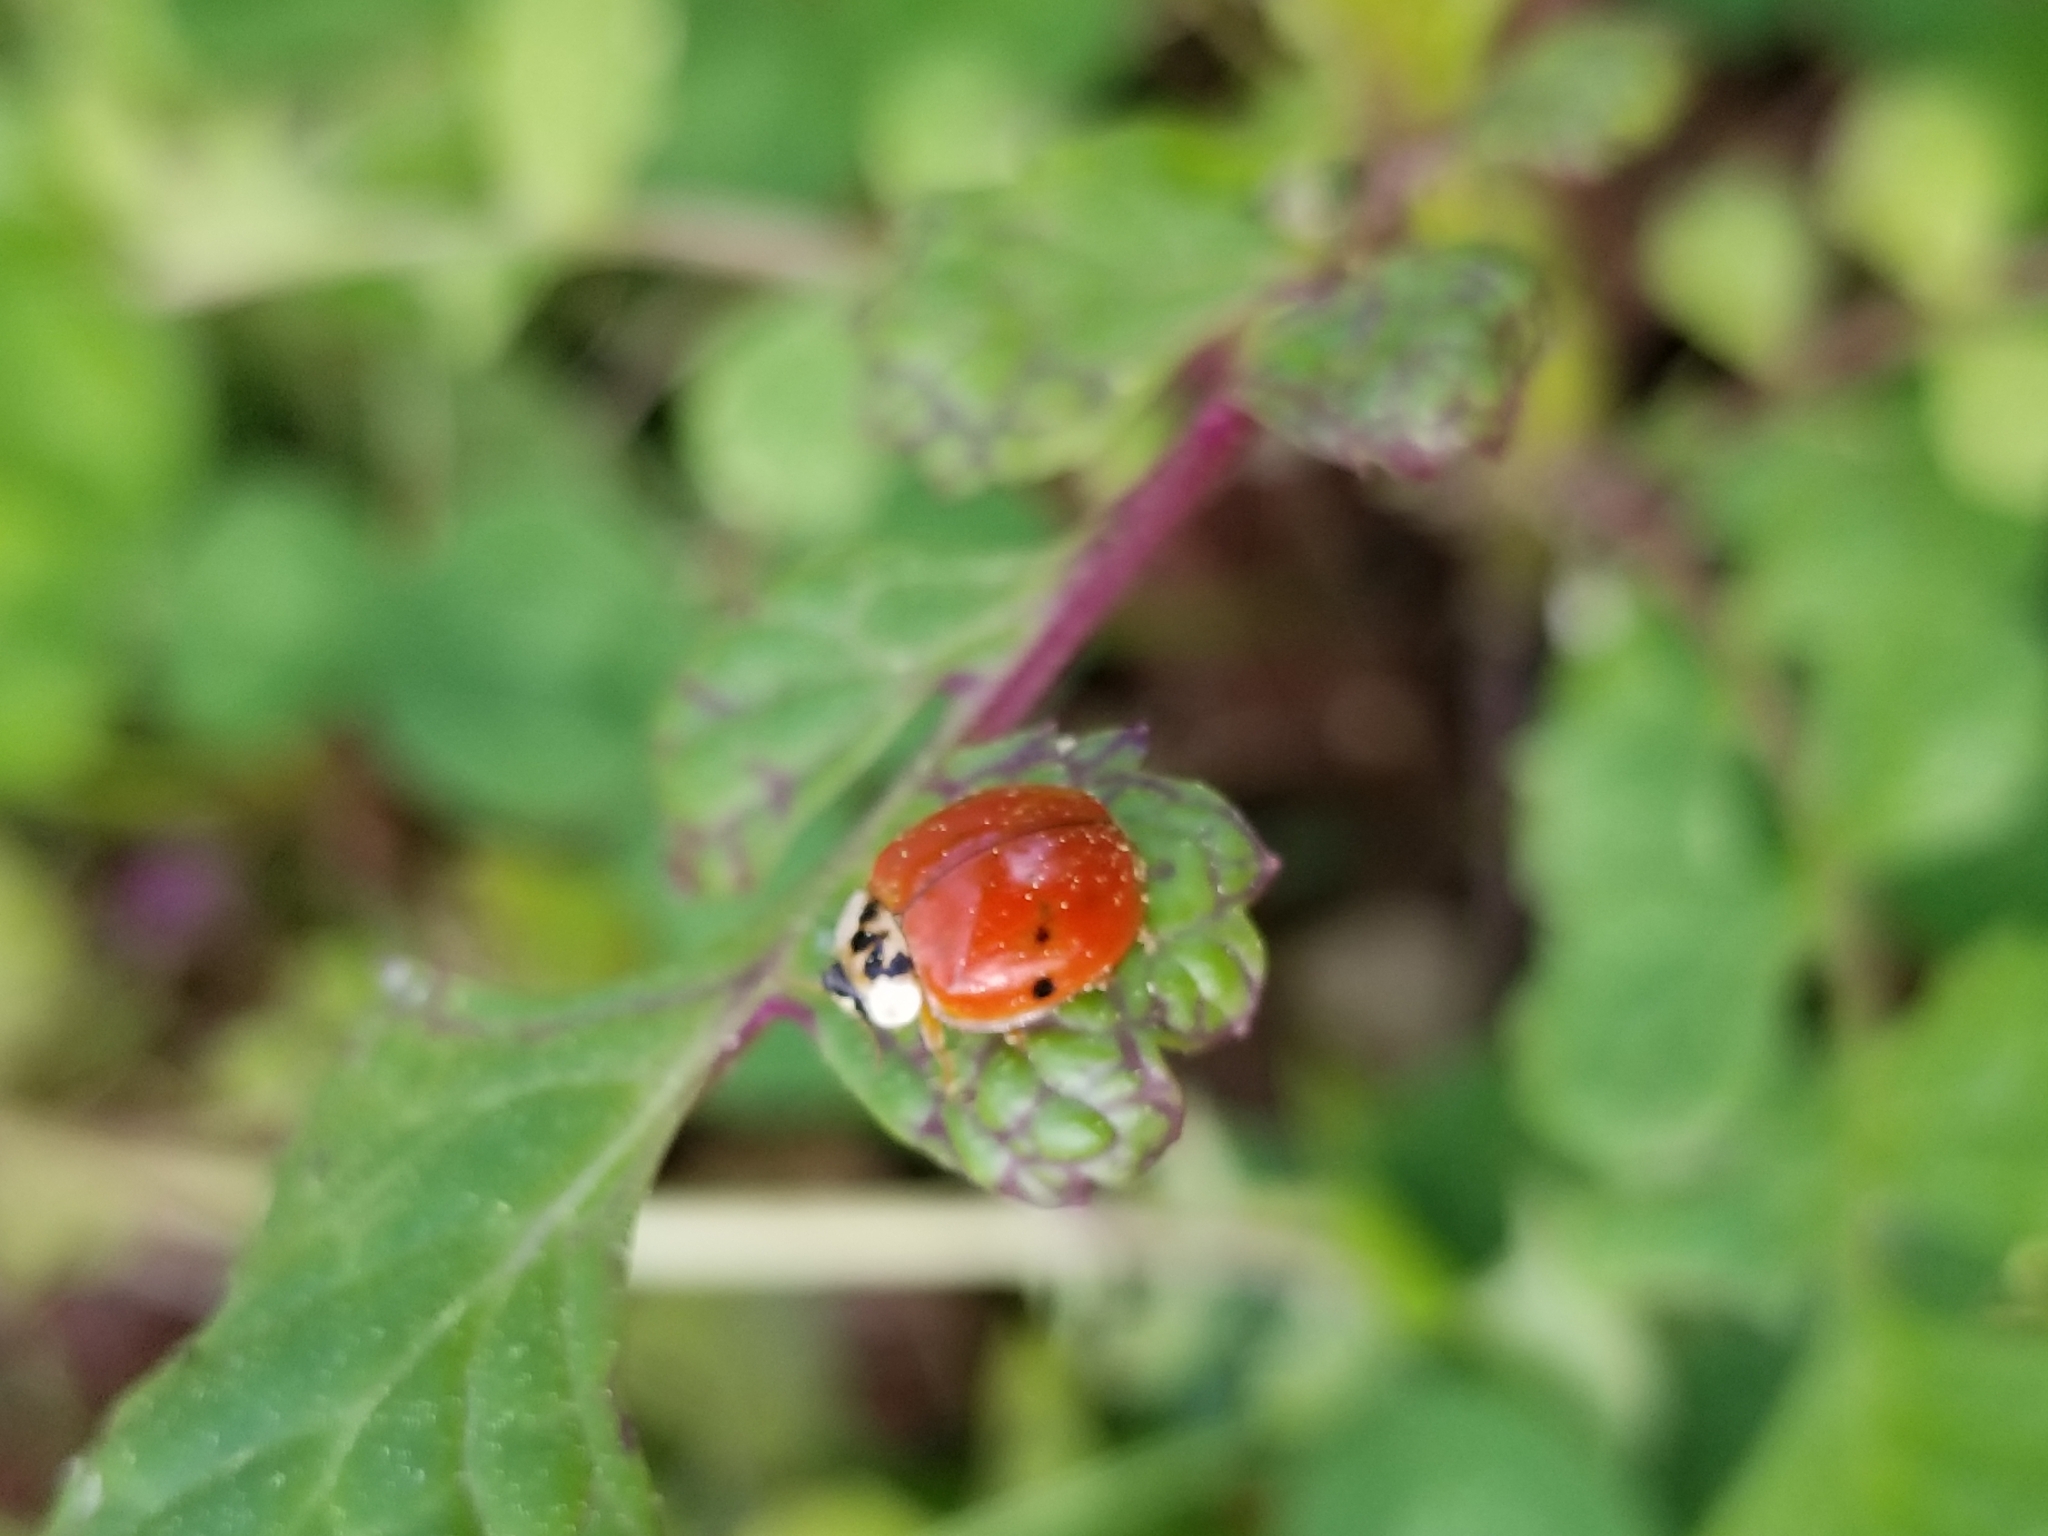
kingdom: Animalia
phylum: Arthropoda
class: Insecta
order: Coleoptera
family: Coccinellidae
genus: Harmonia
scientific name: Harmonia axyridis
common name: Harlequin ladybird
